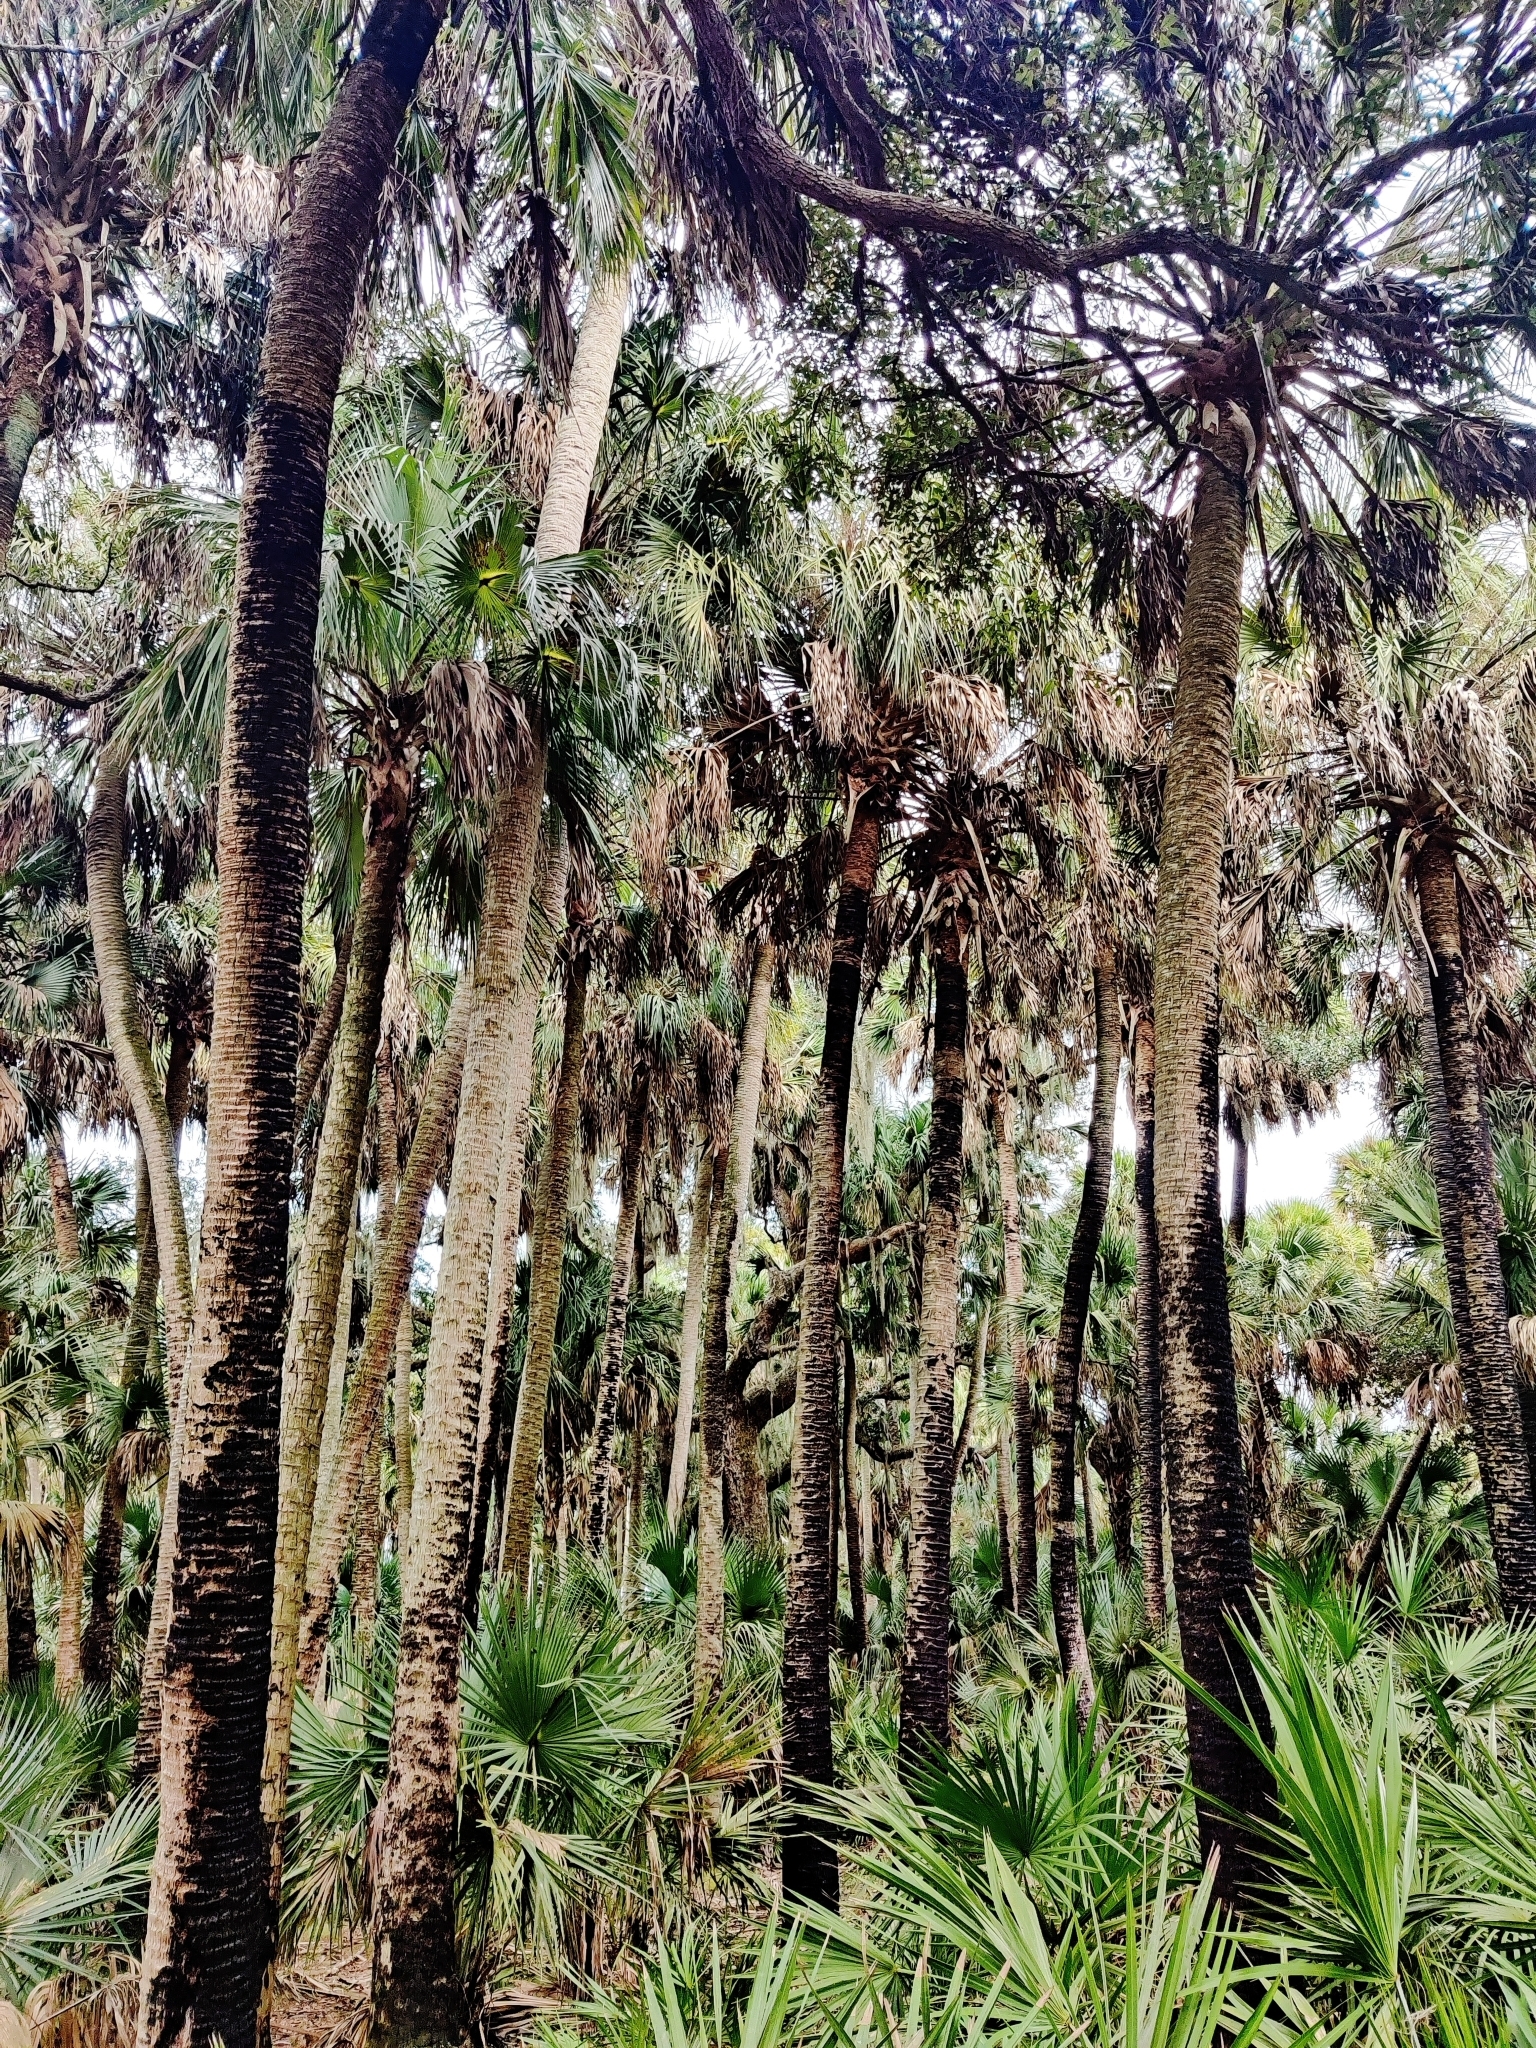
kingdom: Plantae
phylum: Tracheophyta
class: Liliopsida
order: Arecales
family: Arecaceae
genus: Sabal
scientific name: Sabal palmetto
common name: Blue palmetto
